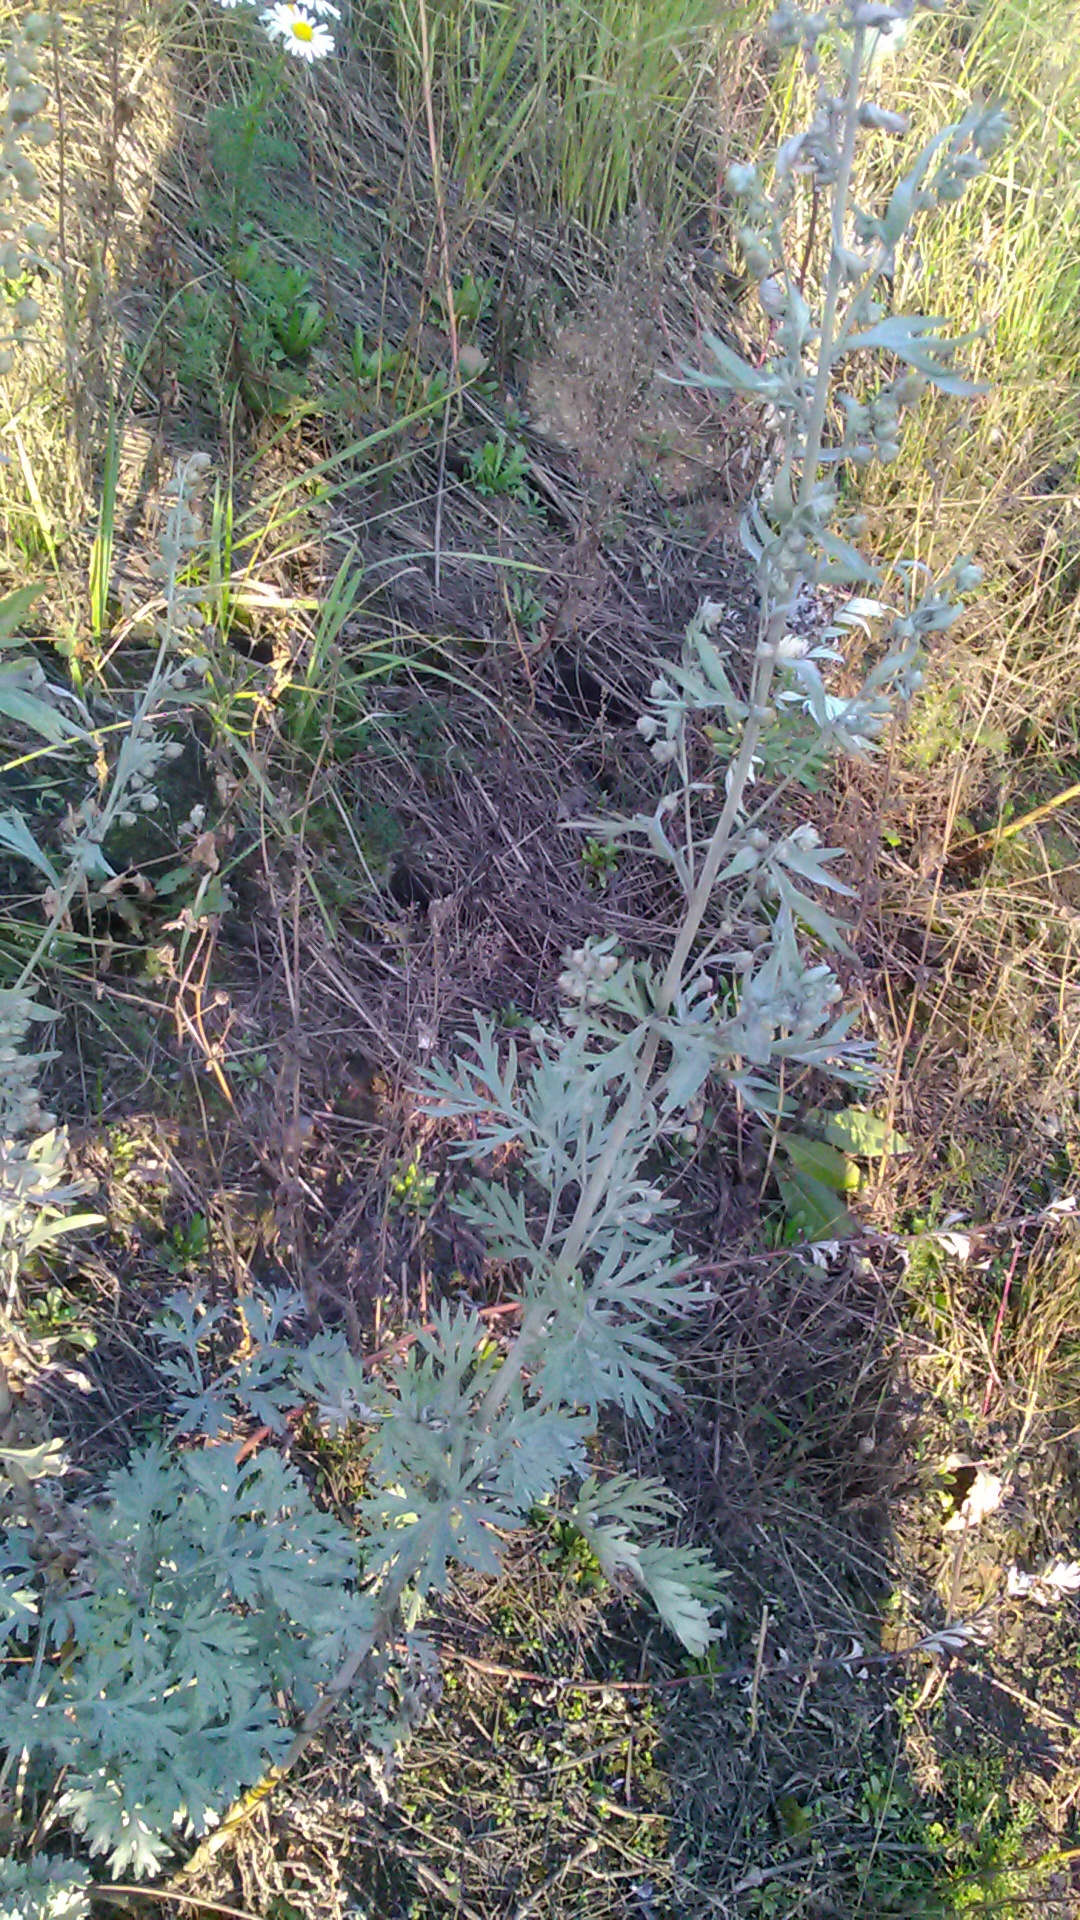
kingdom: Plantae
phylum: Tracheophyta
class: Magnoliopsida
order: Asterales
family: Asteraceae
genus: Artemisia
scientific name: Artemisia absinthium
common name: Wormwood
